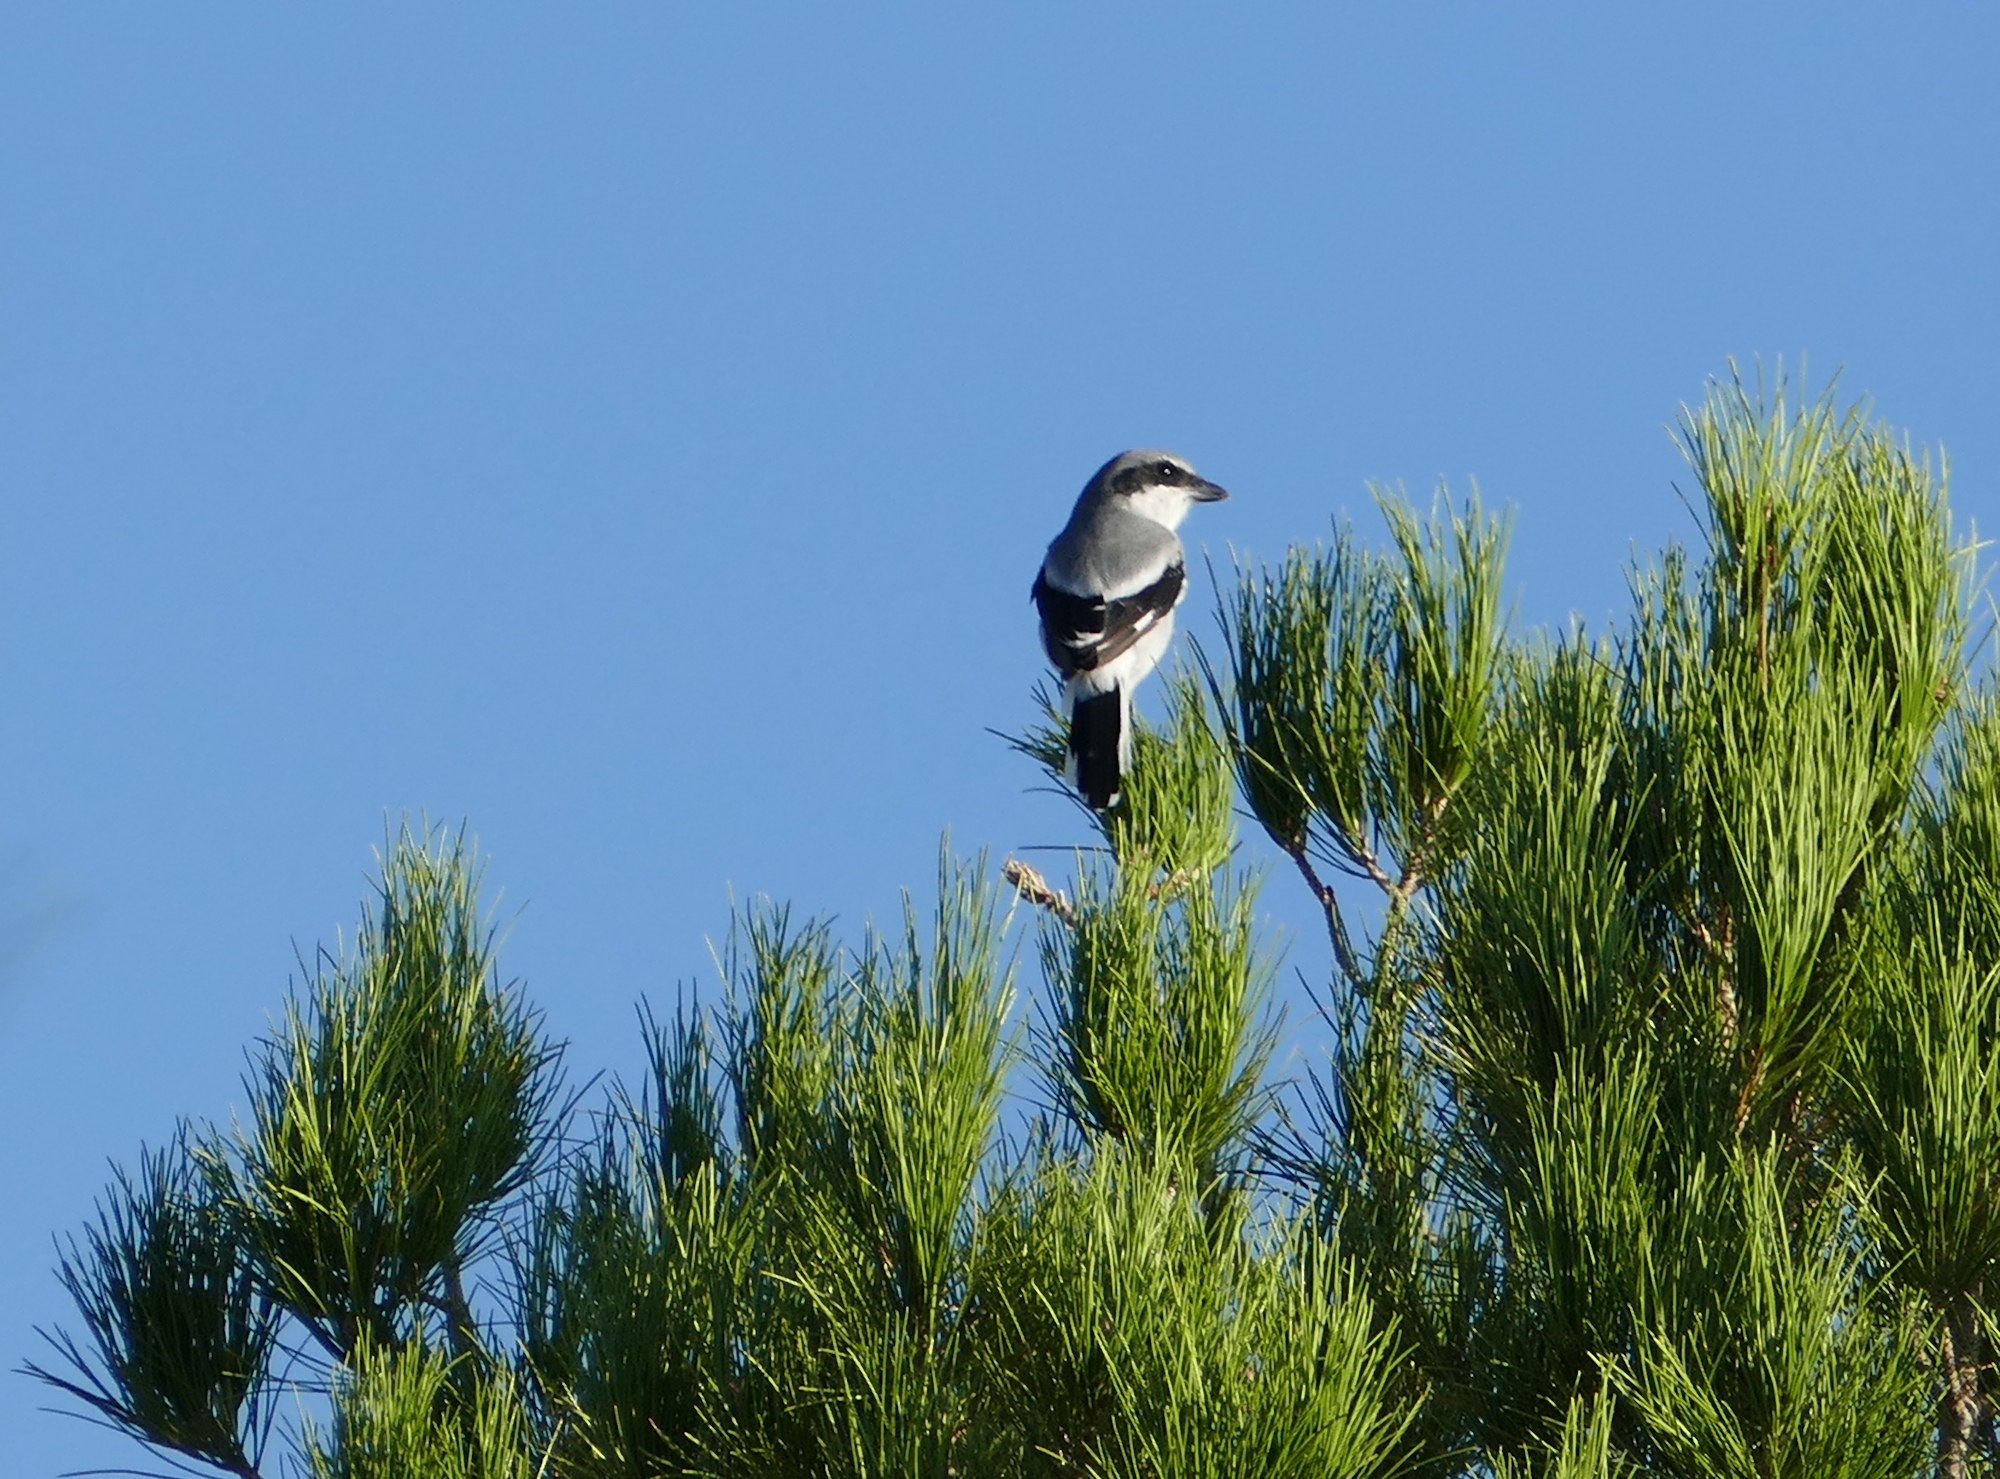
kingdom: Animalia
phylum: Chordata
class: Aves
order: Passeriformes
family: Laniidae
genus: Lanius
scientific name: Lanius ludovicianus
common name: Loggerhead shrike
